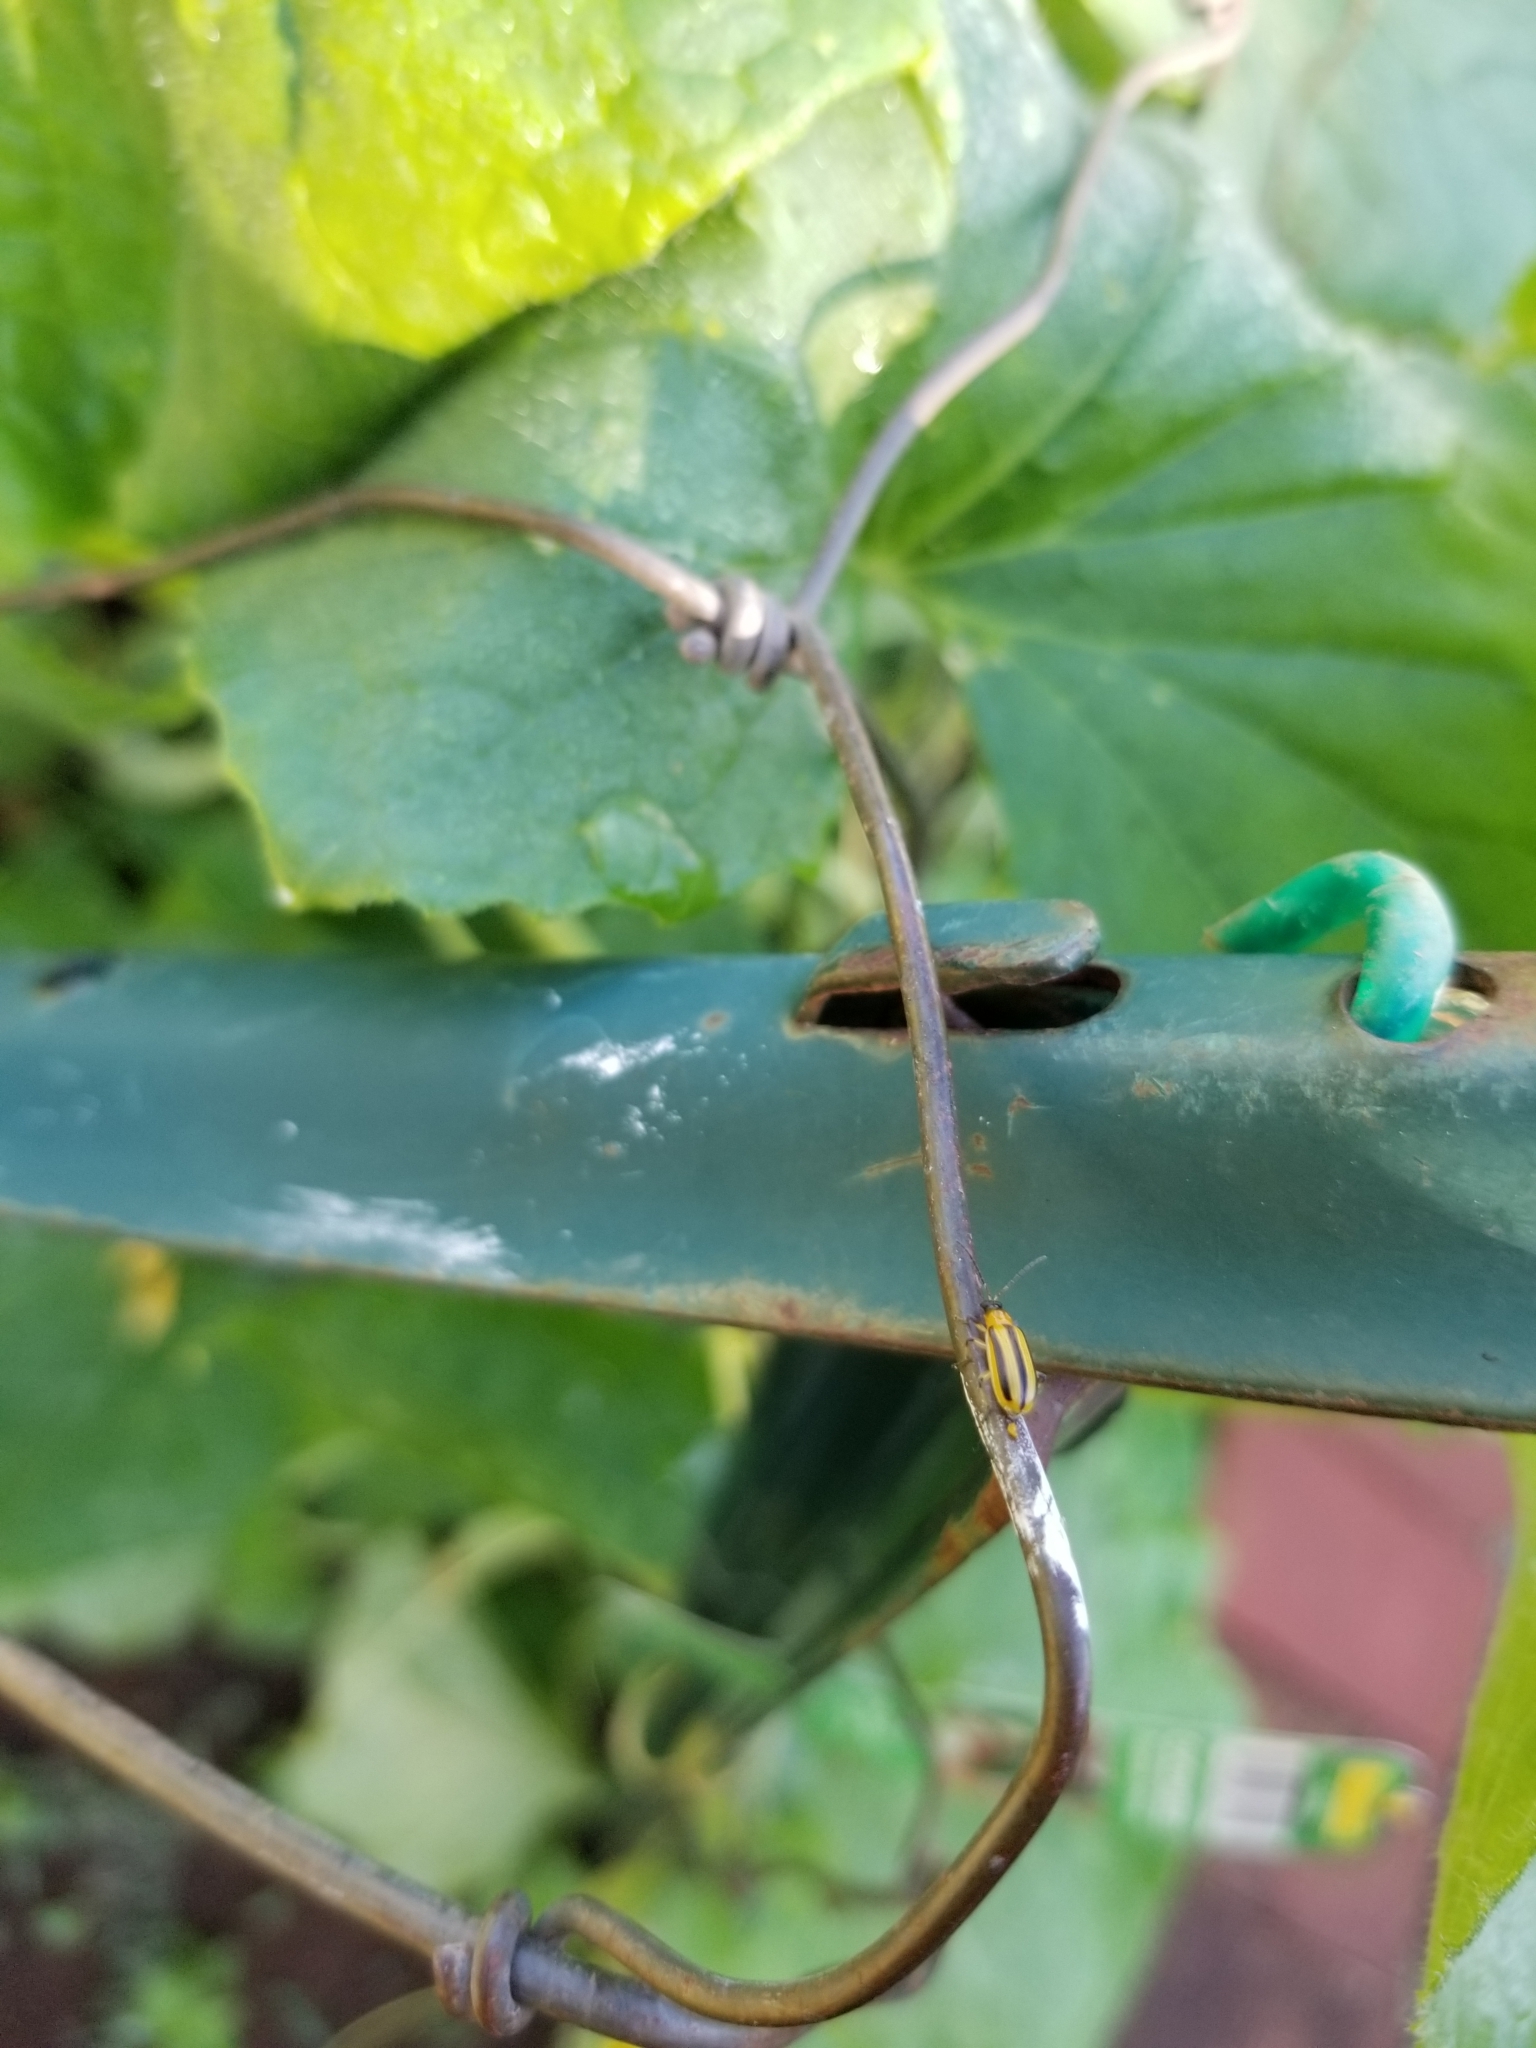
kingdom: Animalia
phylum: Arthropoda
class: Insecta
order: Coleoptera
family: Chrysomelidae
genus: Acalymma
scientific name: Acalymma vittatum
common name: Striped cucumber beetle
